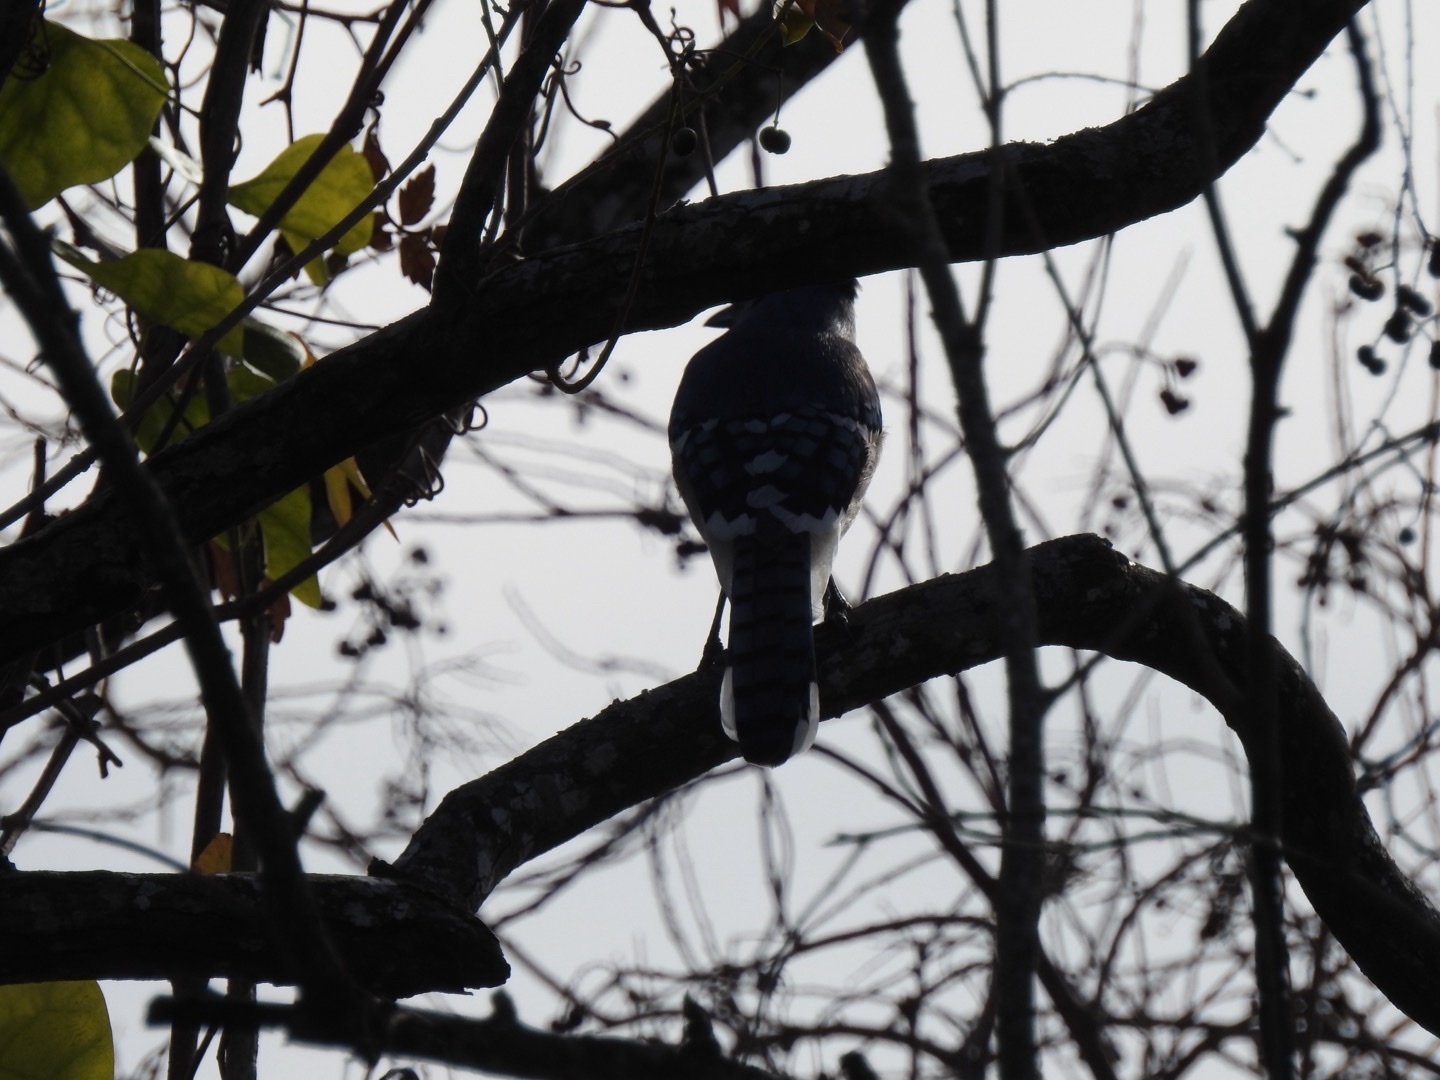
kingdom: Animalia
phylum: Chordata
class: Aves
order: Passeriformes
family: Corvidae
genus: Cyanocitta
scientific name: Cyanocitta cristata
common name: Blue jay
